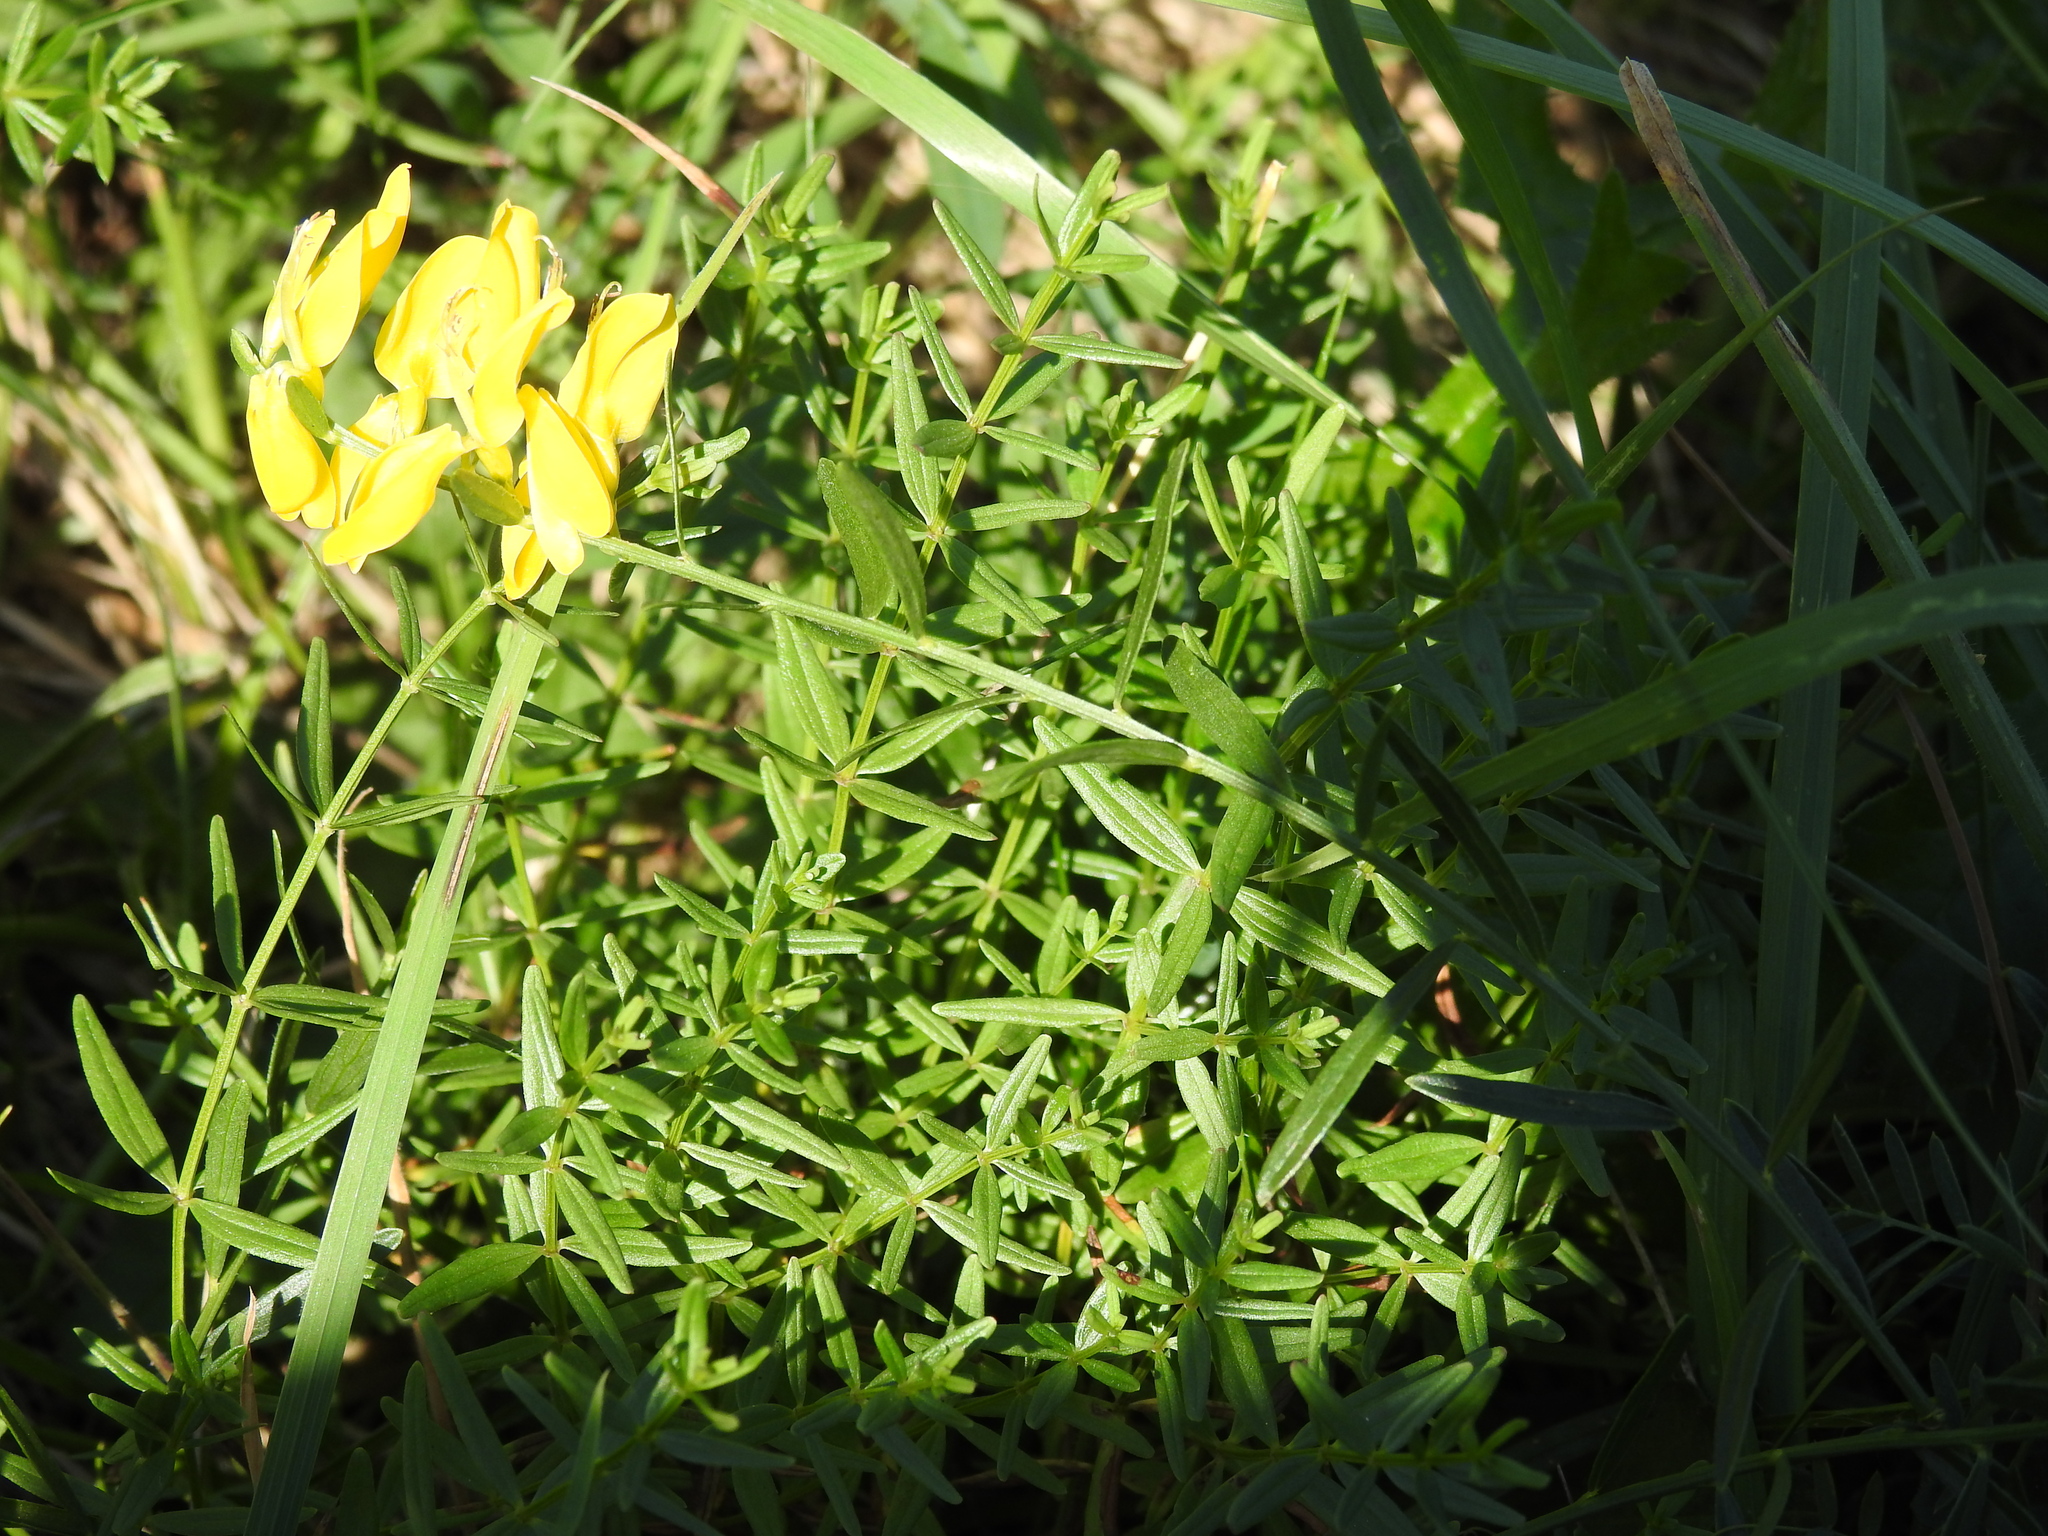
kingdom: Plantae
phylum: Tracheophyta
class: Magnoliopsida
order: Fabales
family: Fabaceae
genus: Genista
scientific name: Genista tinctoria
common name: Dyer's greenweed
